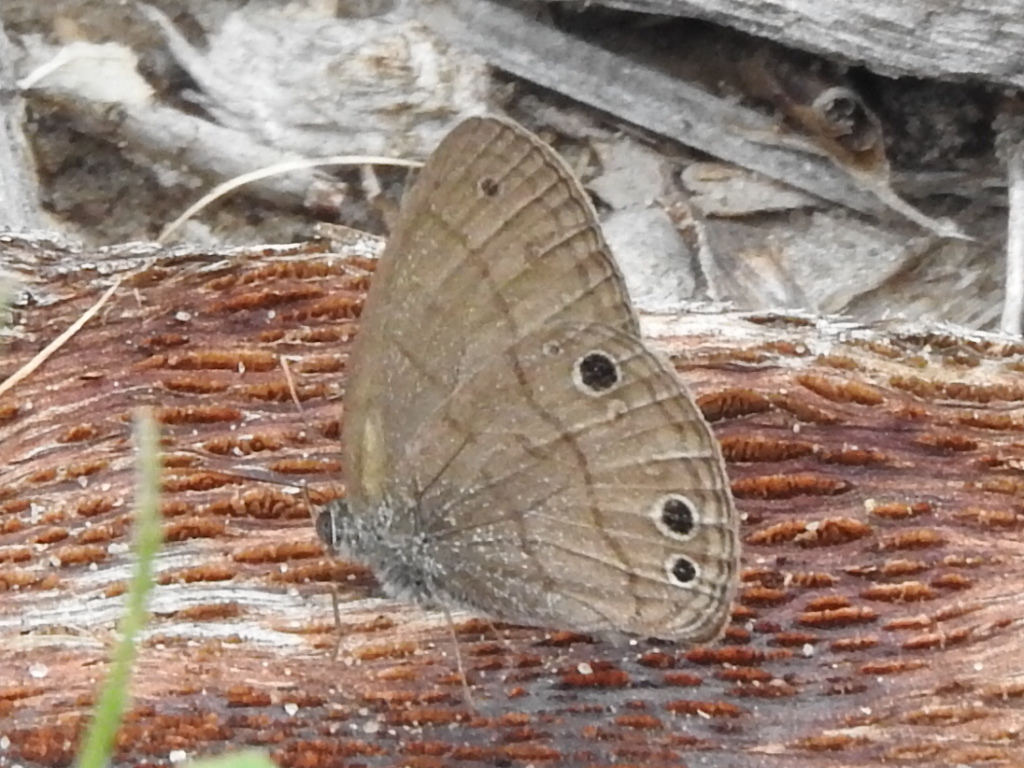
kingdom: Animalia
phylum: Arthropoda
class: Insecta
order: Lepidoptera
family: Nymphalidae
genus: Hermeuptychia
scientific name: Hermeuptychia hermes
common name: Hermes satyr
